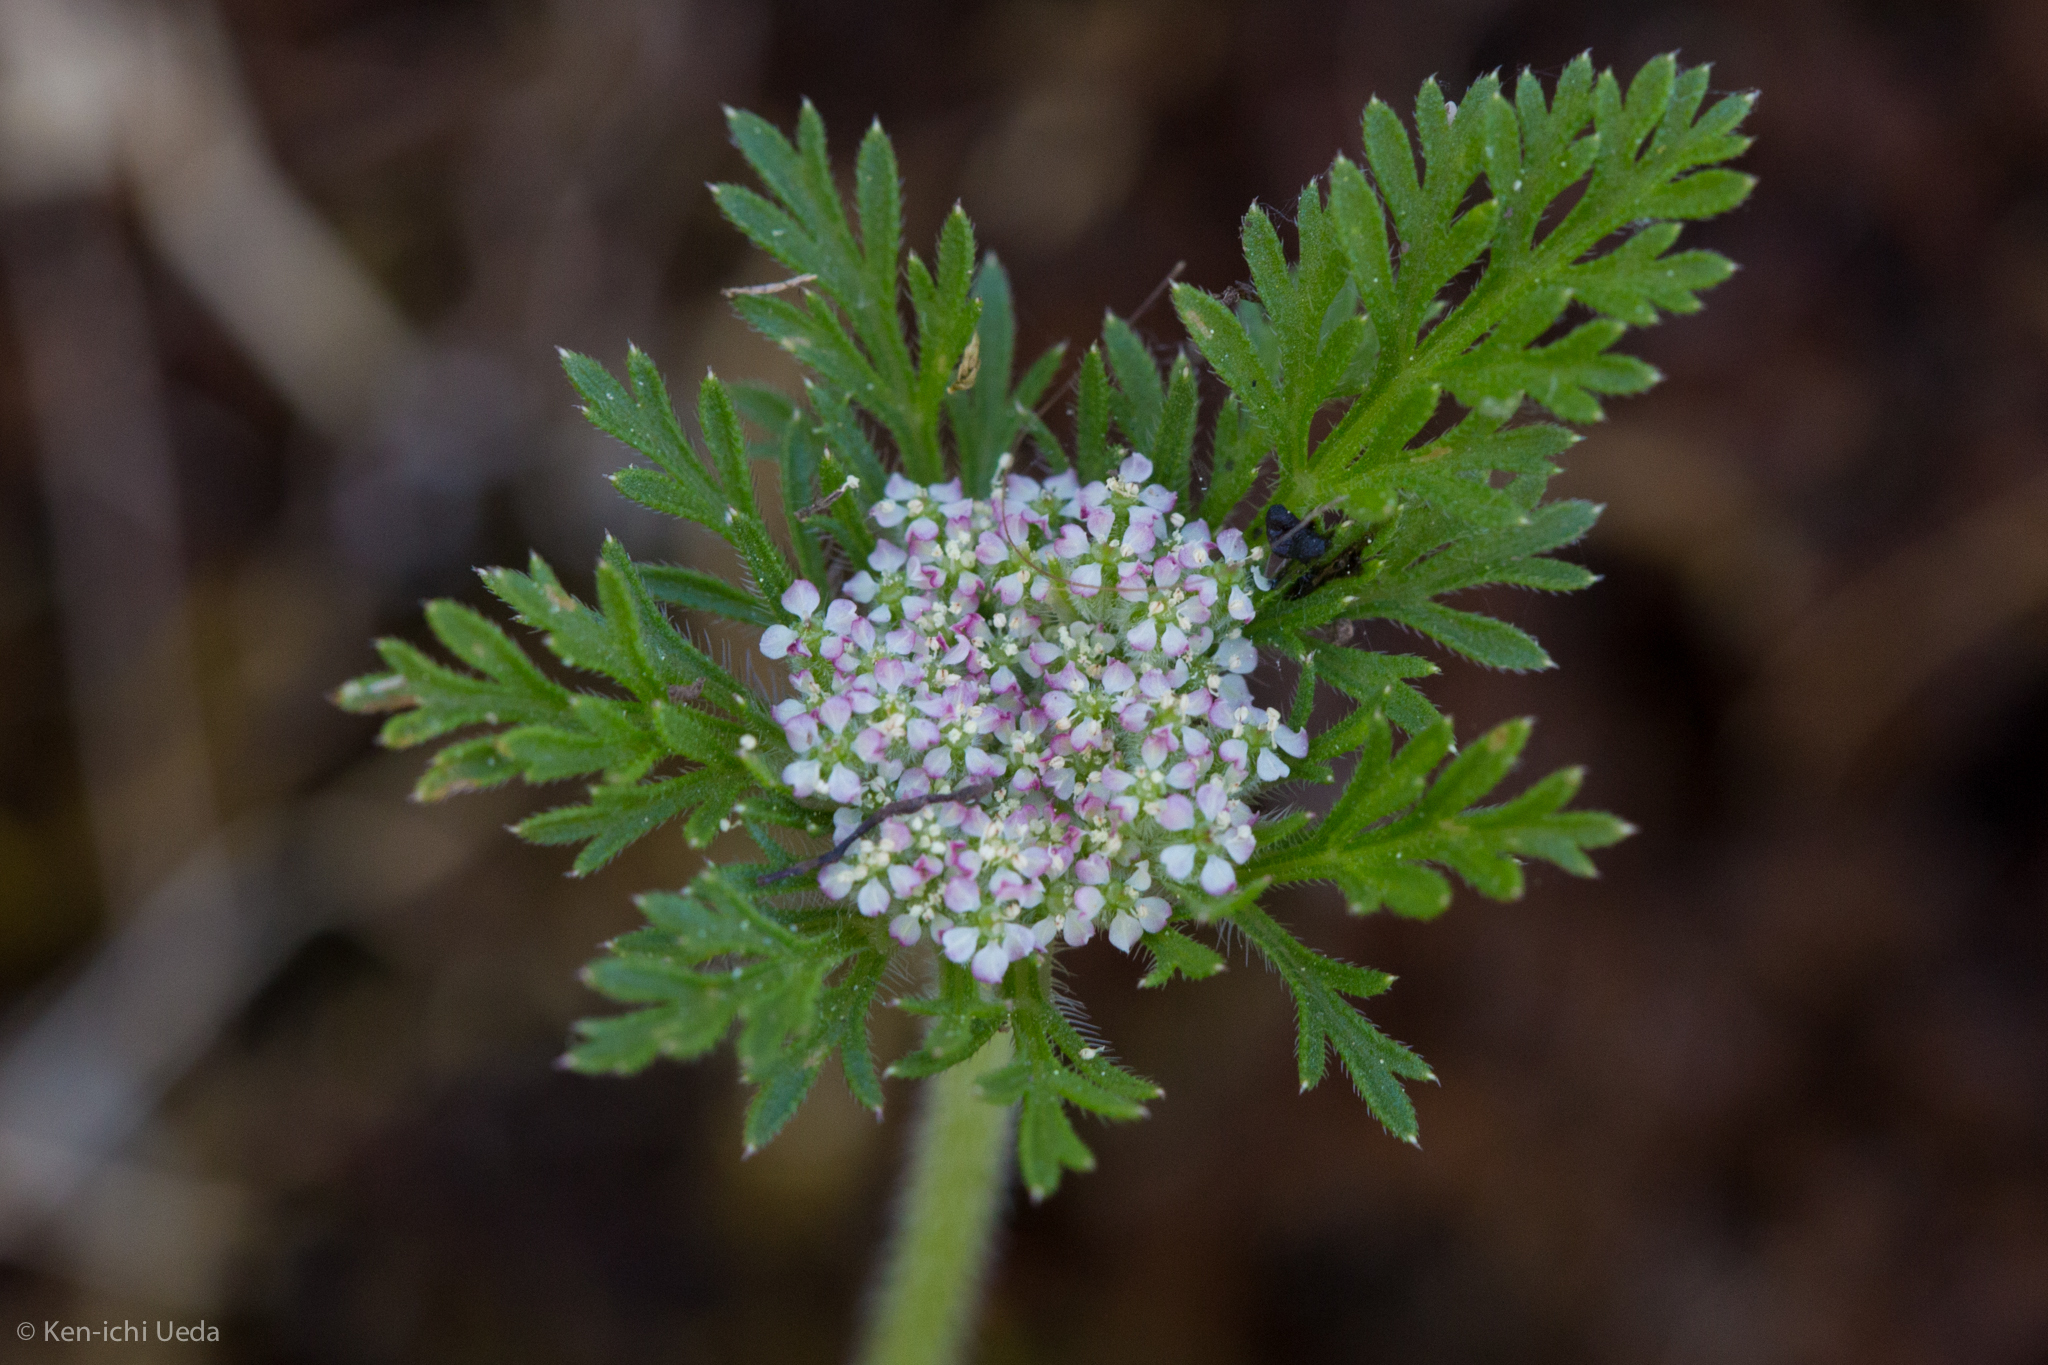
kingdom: Plantae
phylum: Tracheophyta
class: Magnoliopsida
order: Apiales
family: Apiaceae
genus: Daucus
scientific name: Daucus pusillus
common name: Southwest wild carrot
